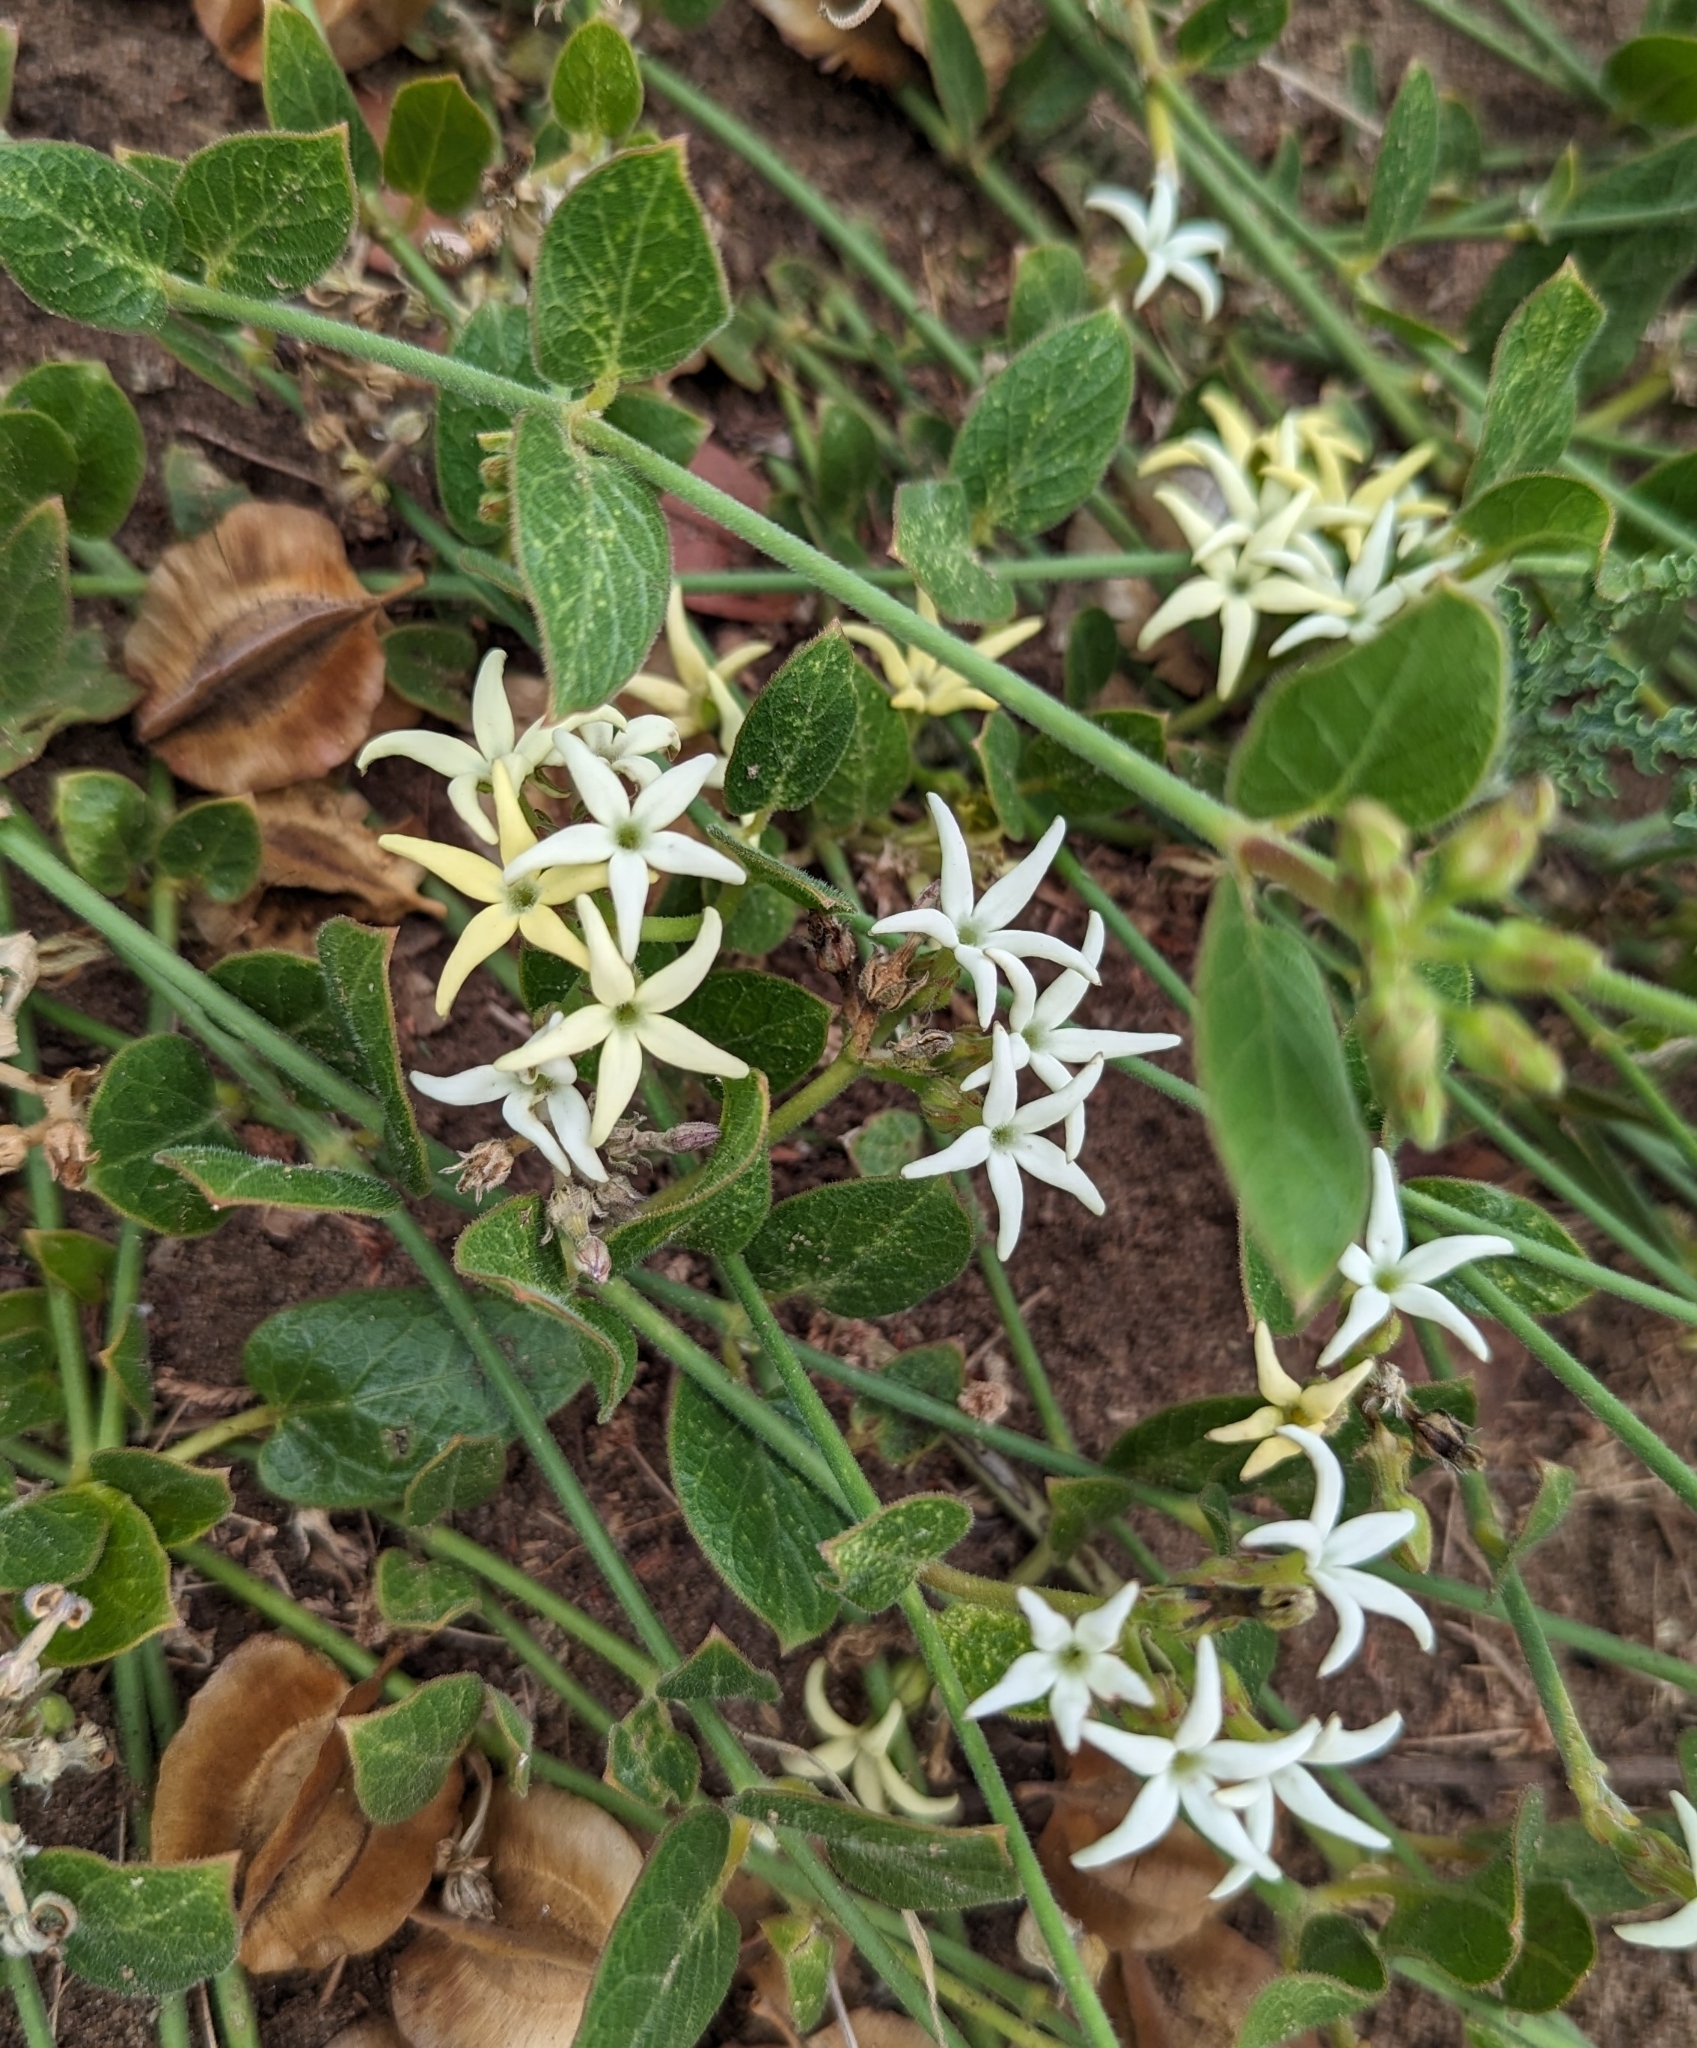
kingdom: Plantae
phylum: Tracheophyta
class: Magnoliopsida
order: Gentianales
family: Apocynaceae
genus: Orthanthera
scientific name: Orthanthera jasminiflora
